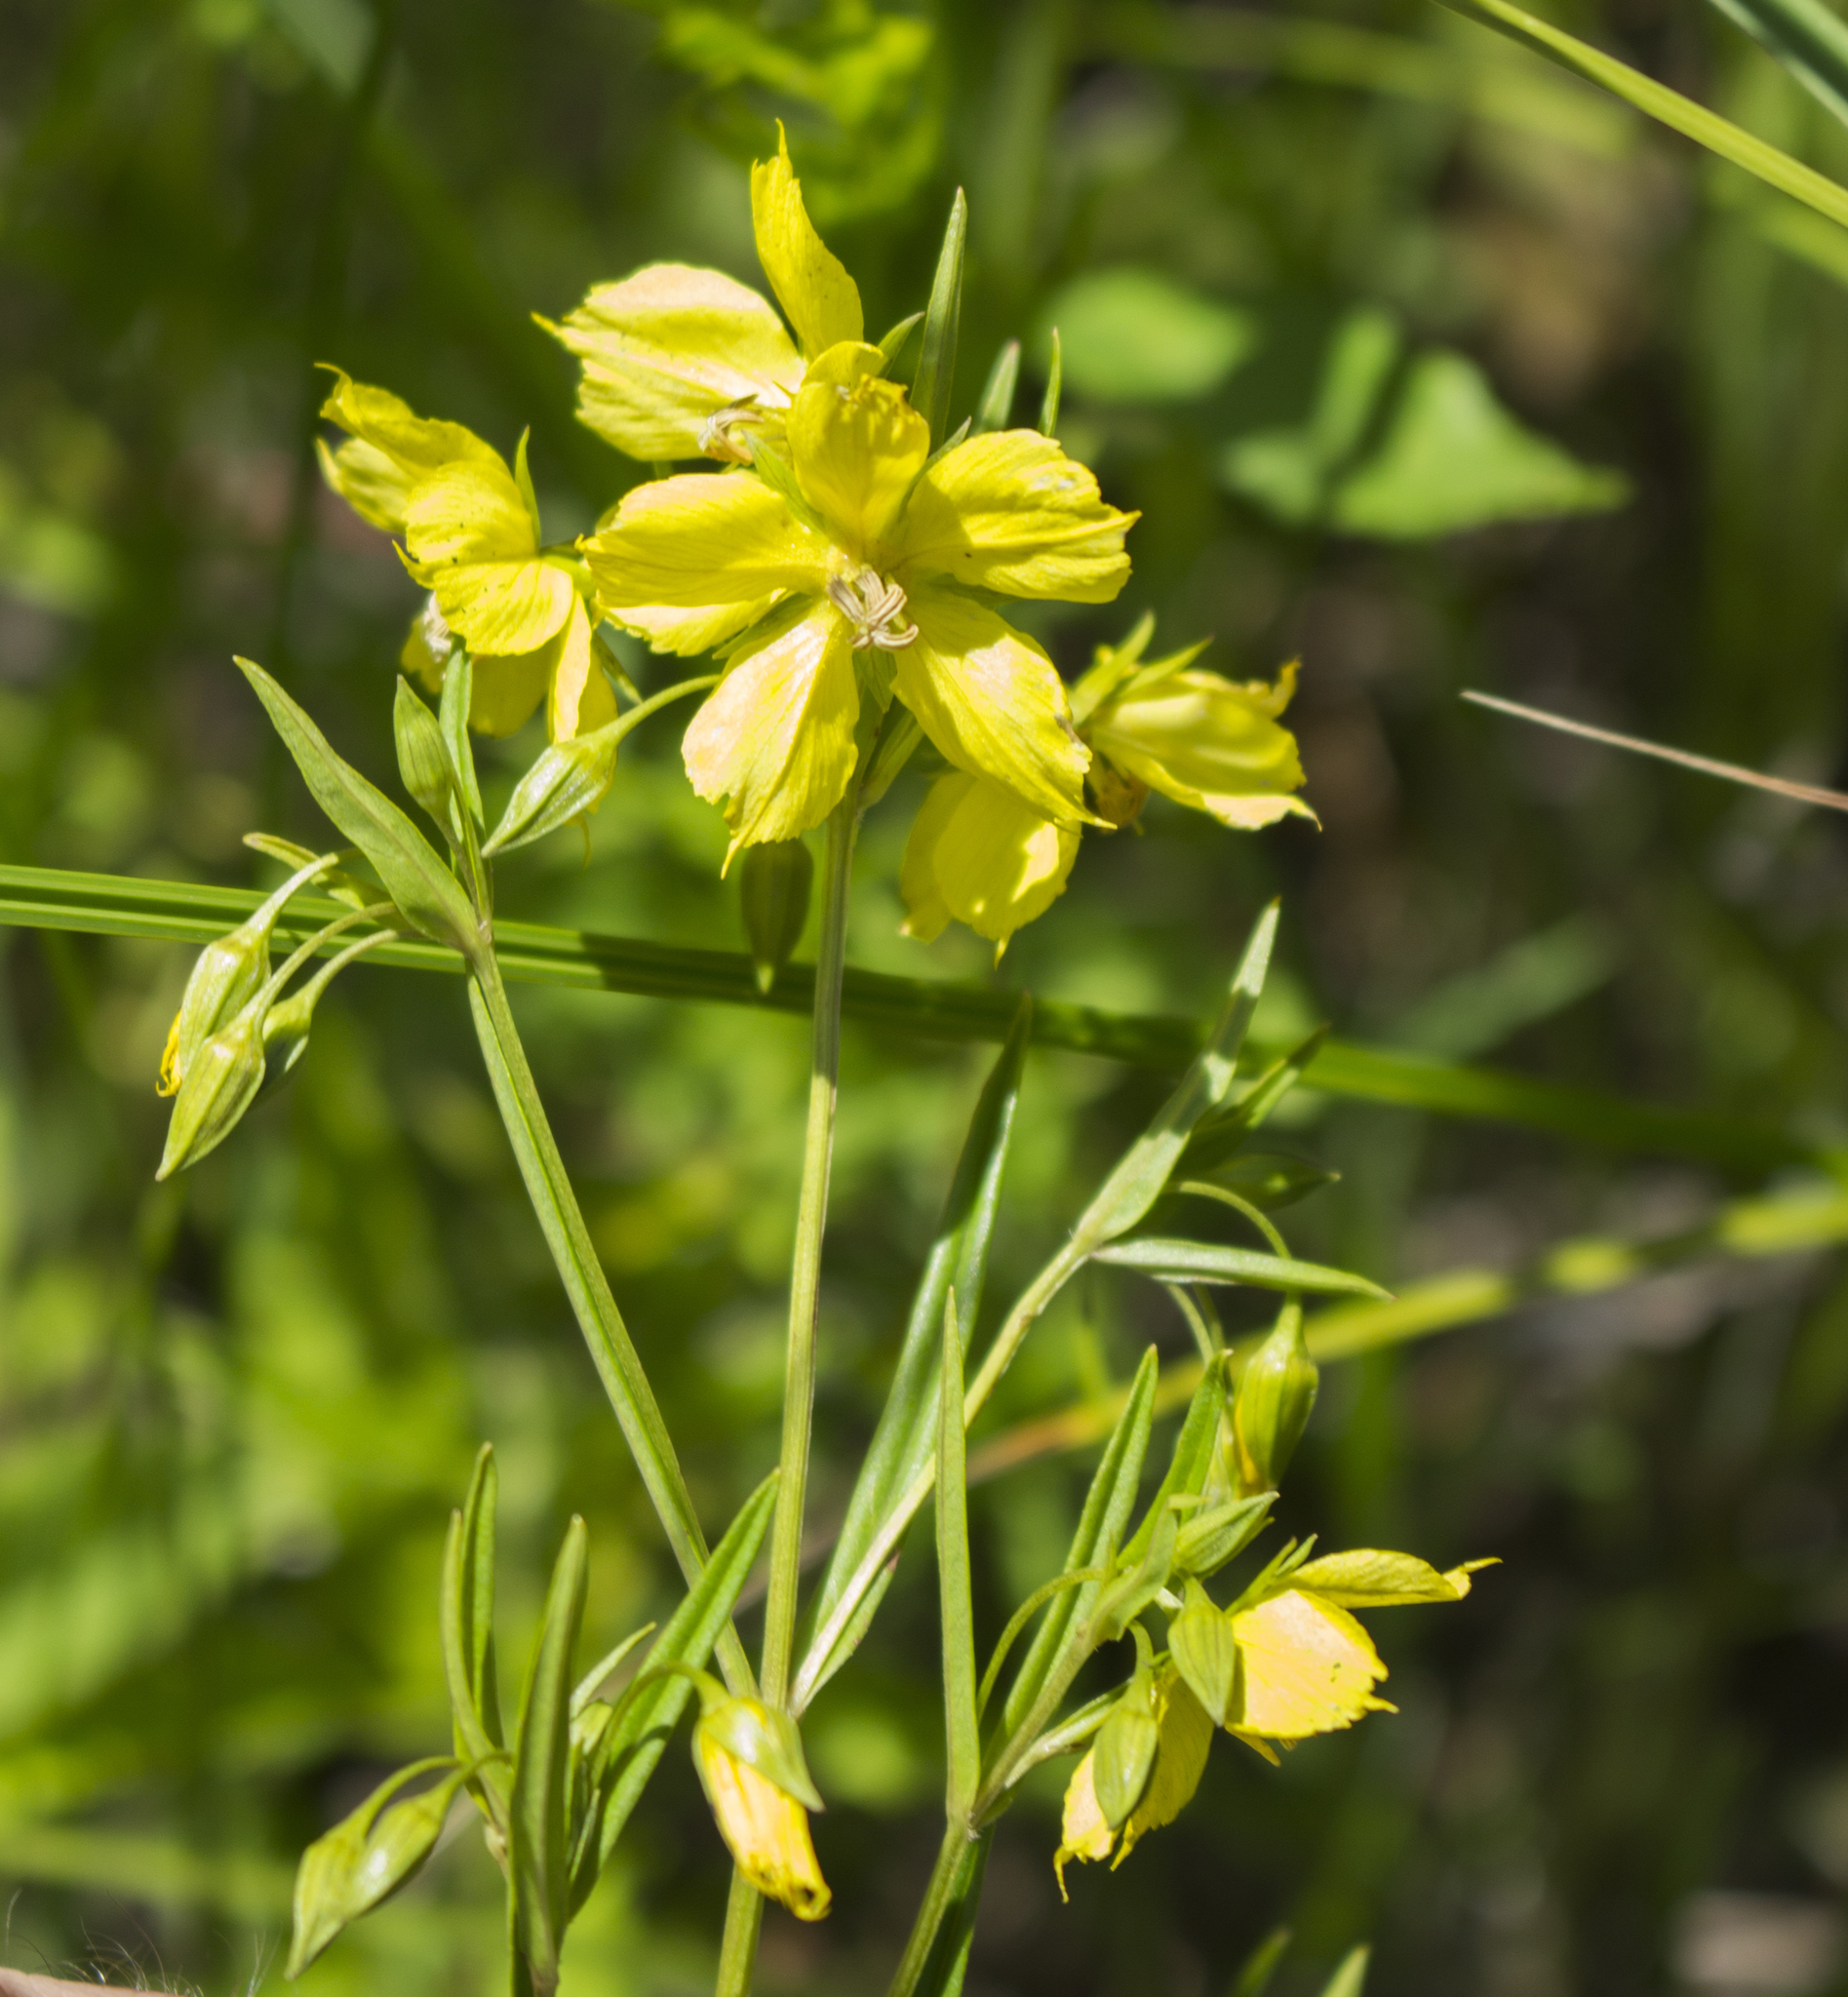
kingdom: Plantae
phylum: Tracheophyta
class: Magnoliopsida
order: Ericales
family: Primulaceae
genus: Lysimachia
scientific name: Lysimachia quadriflora
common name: Four-flowered loosestrife
